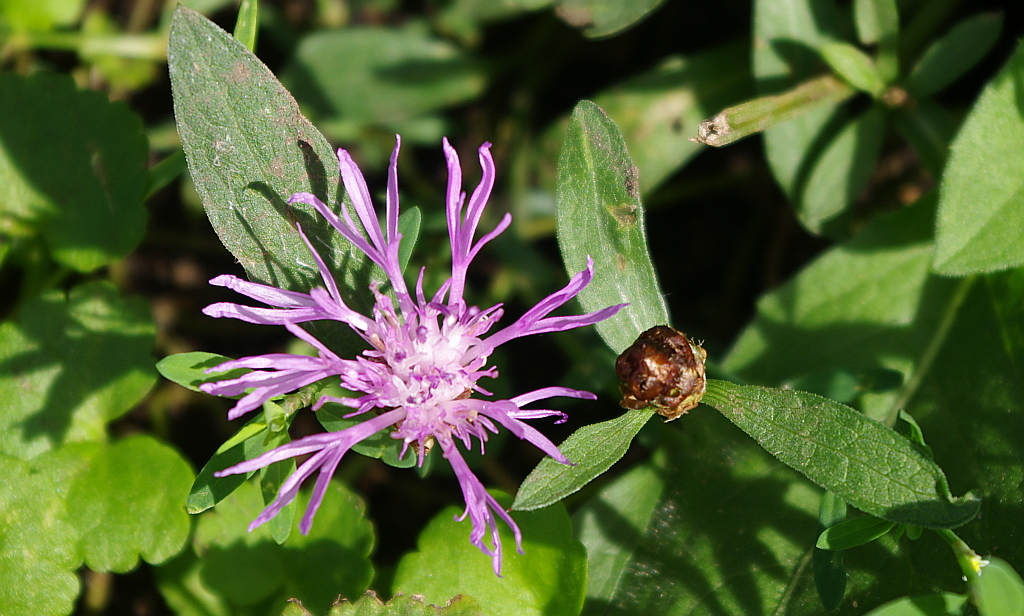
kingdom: Plantae
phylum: Tracheophyta
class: Magnoliopsida
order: Asterales
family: Asteraceae
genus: Centaurea
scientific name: Centaurea jacea
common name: Brown knapweed
